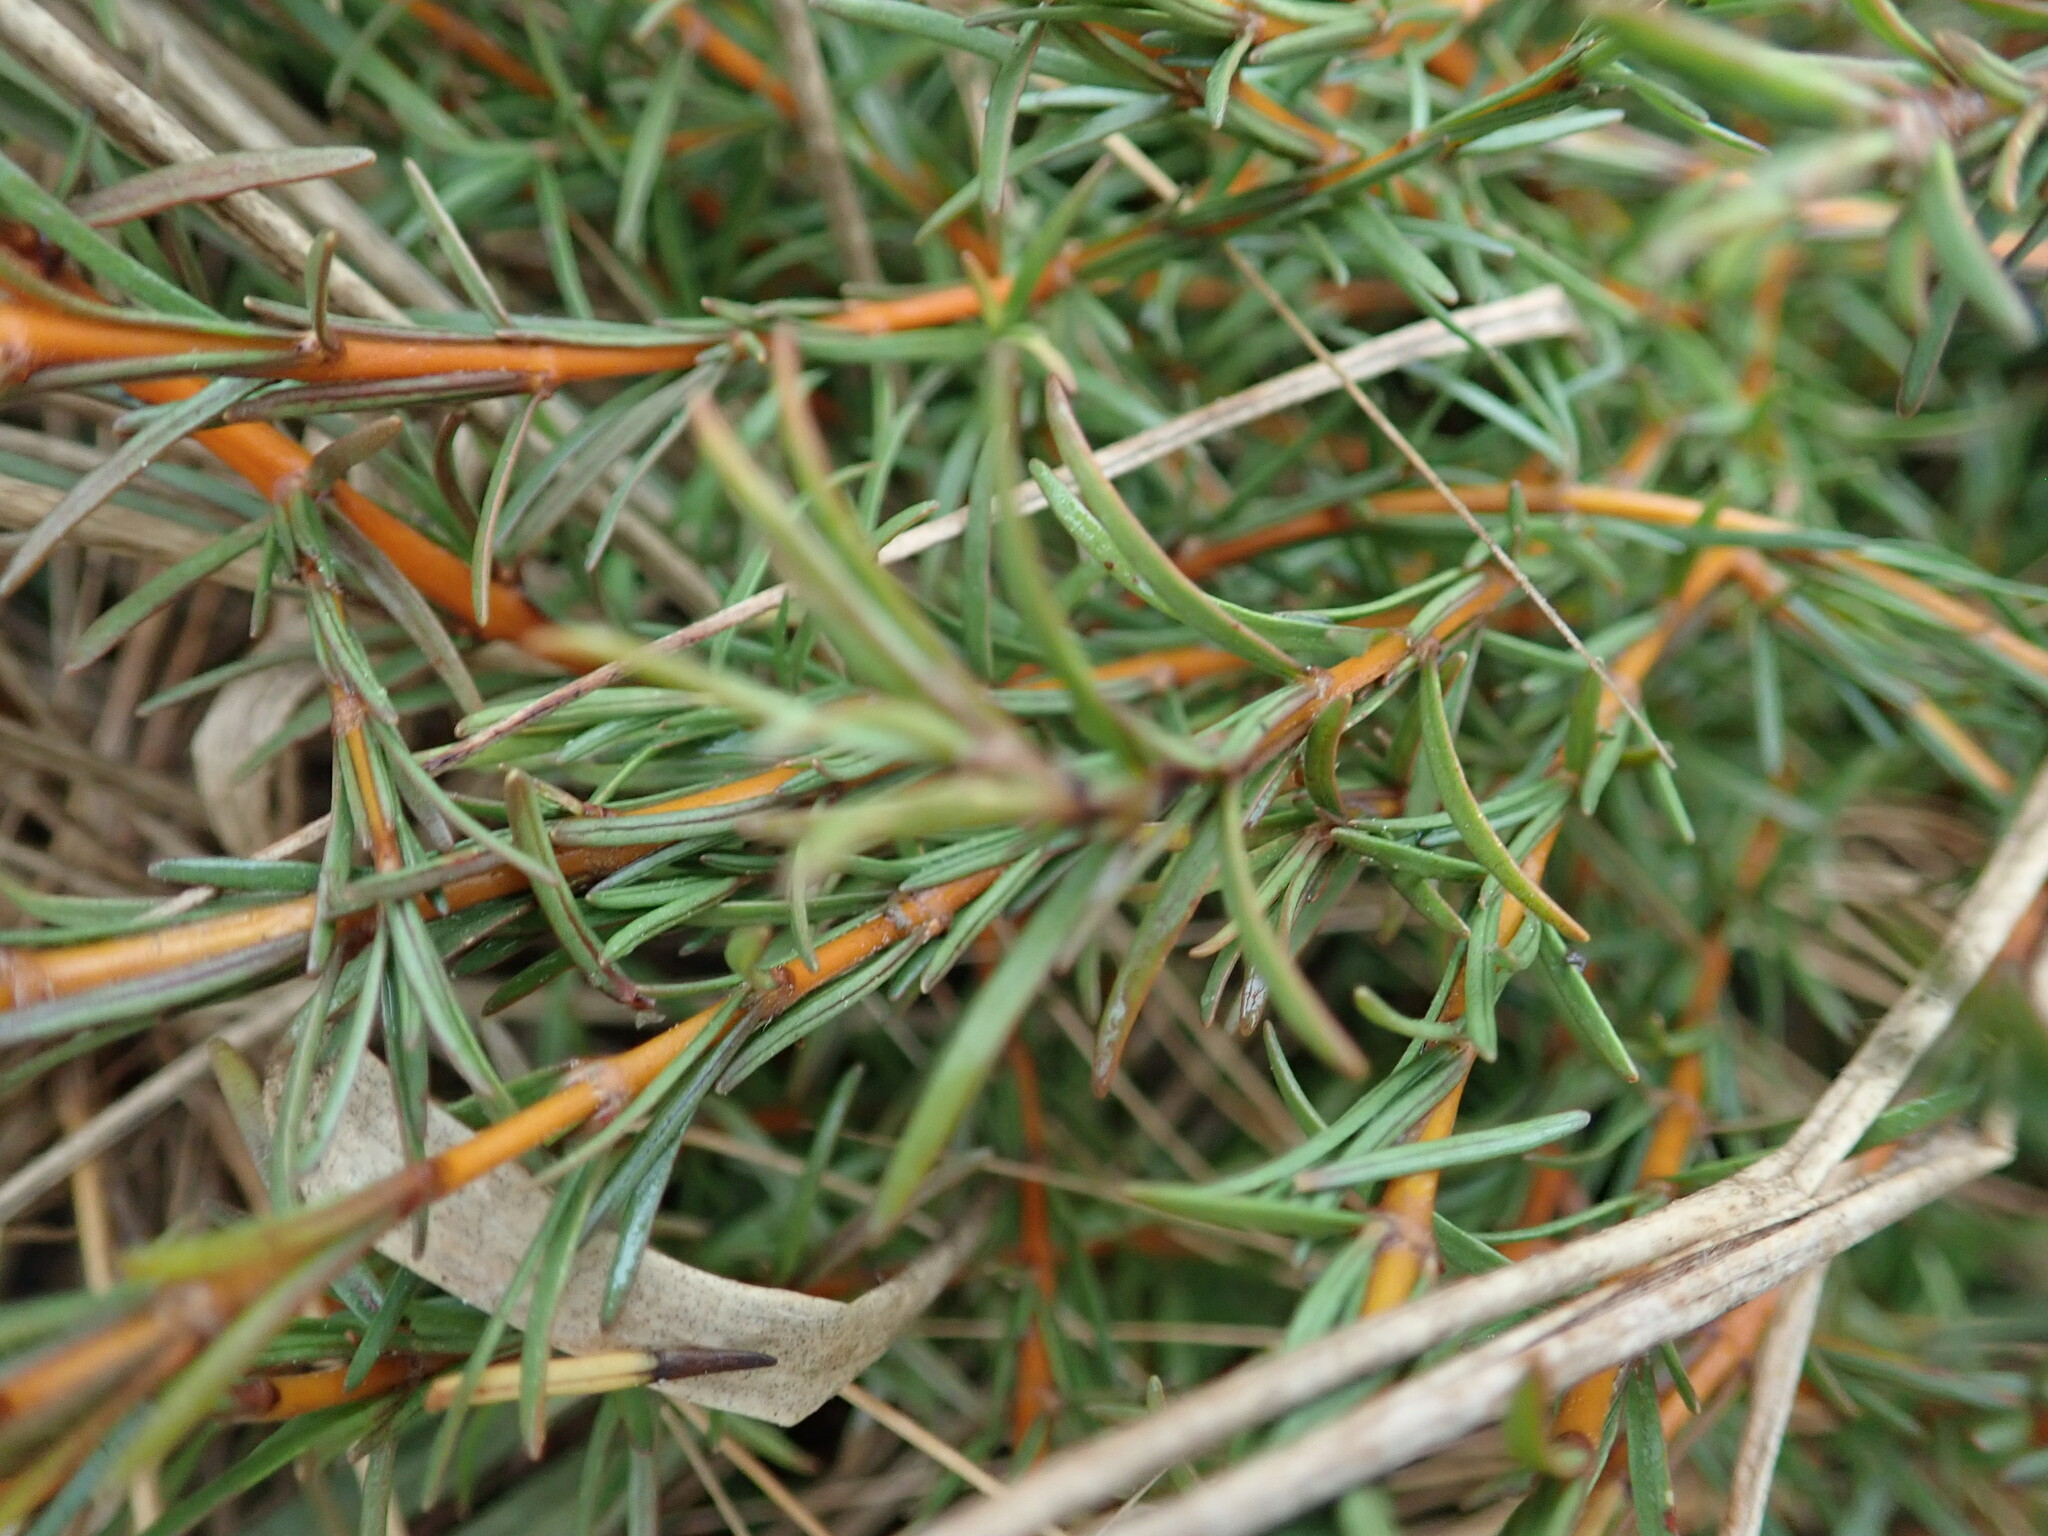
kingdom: Plantae
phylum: Tracheophyta
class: Magnoliopsida
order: Gentianales
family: Rubiaceae
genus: Coprosma
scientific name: Coprosma acerosa
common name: Sand coprosma
